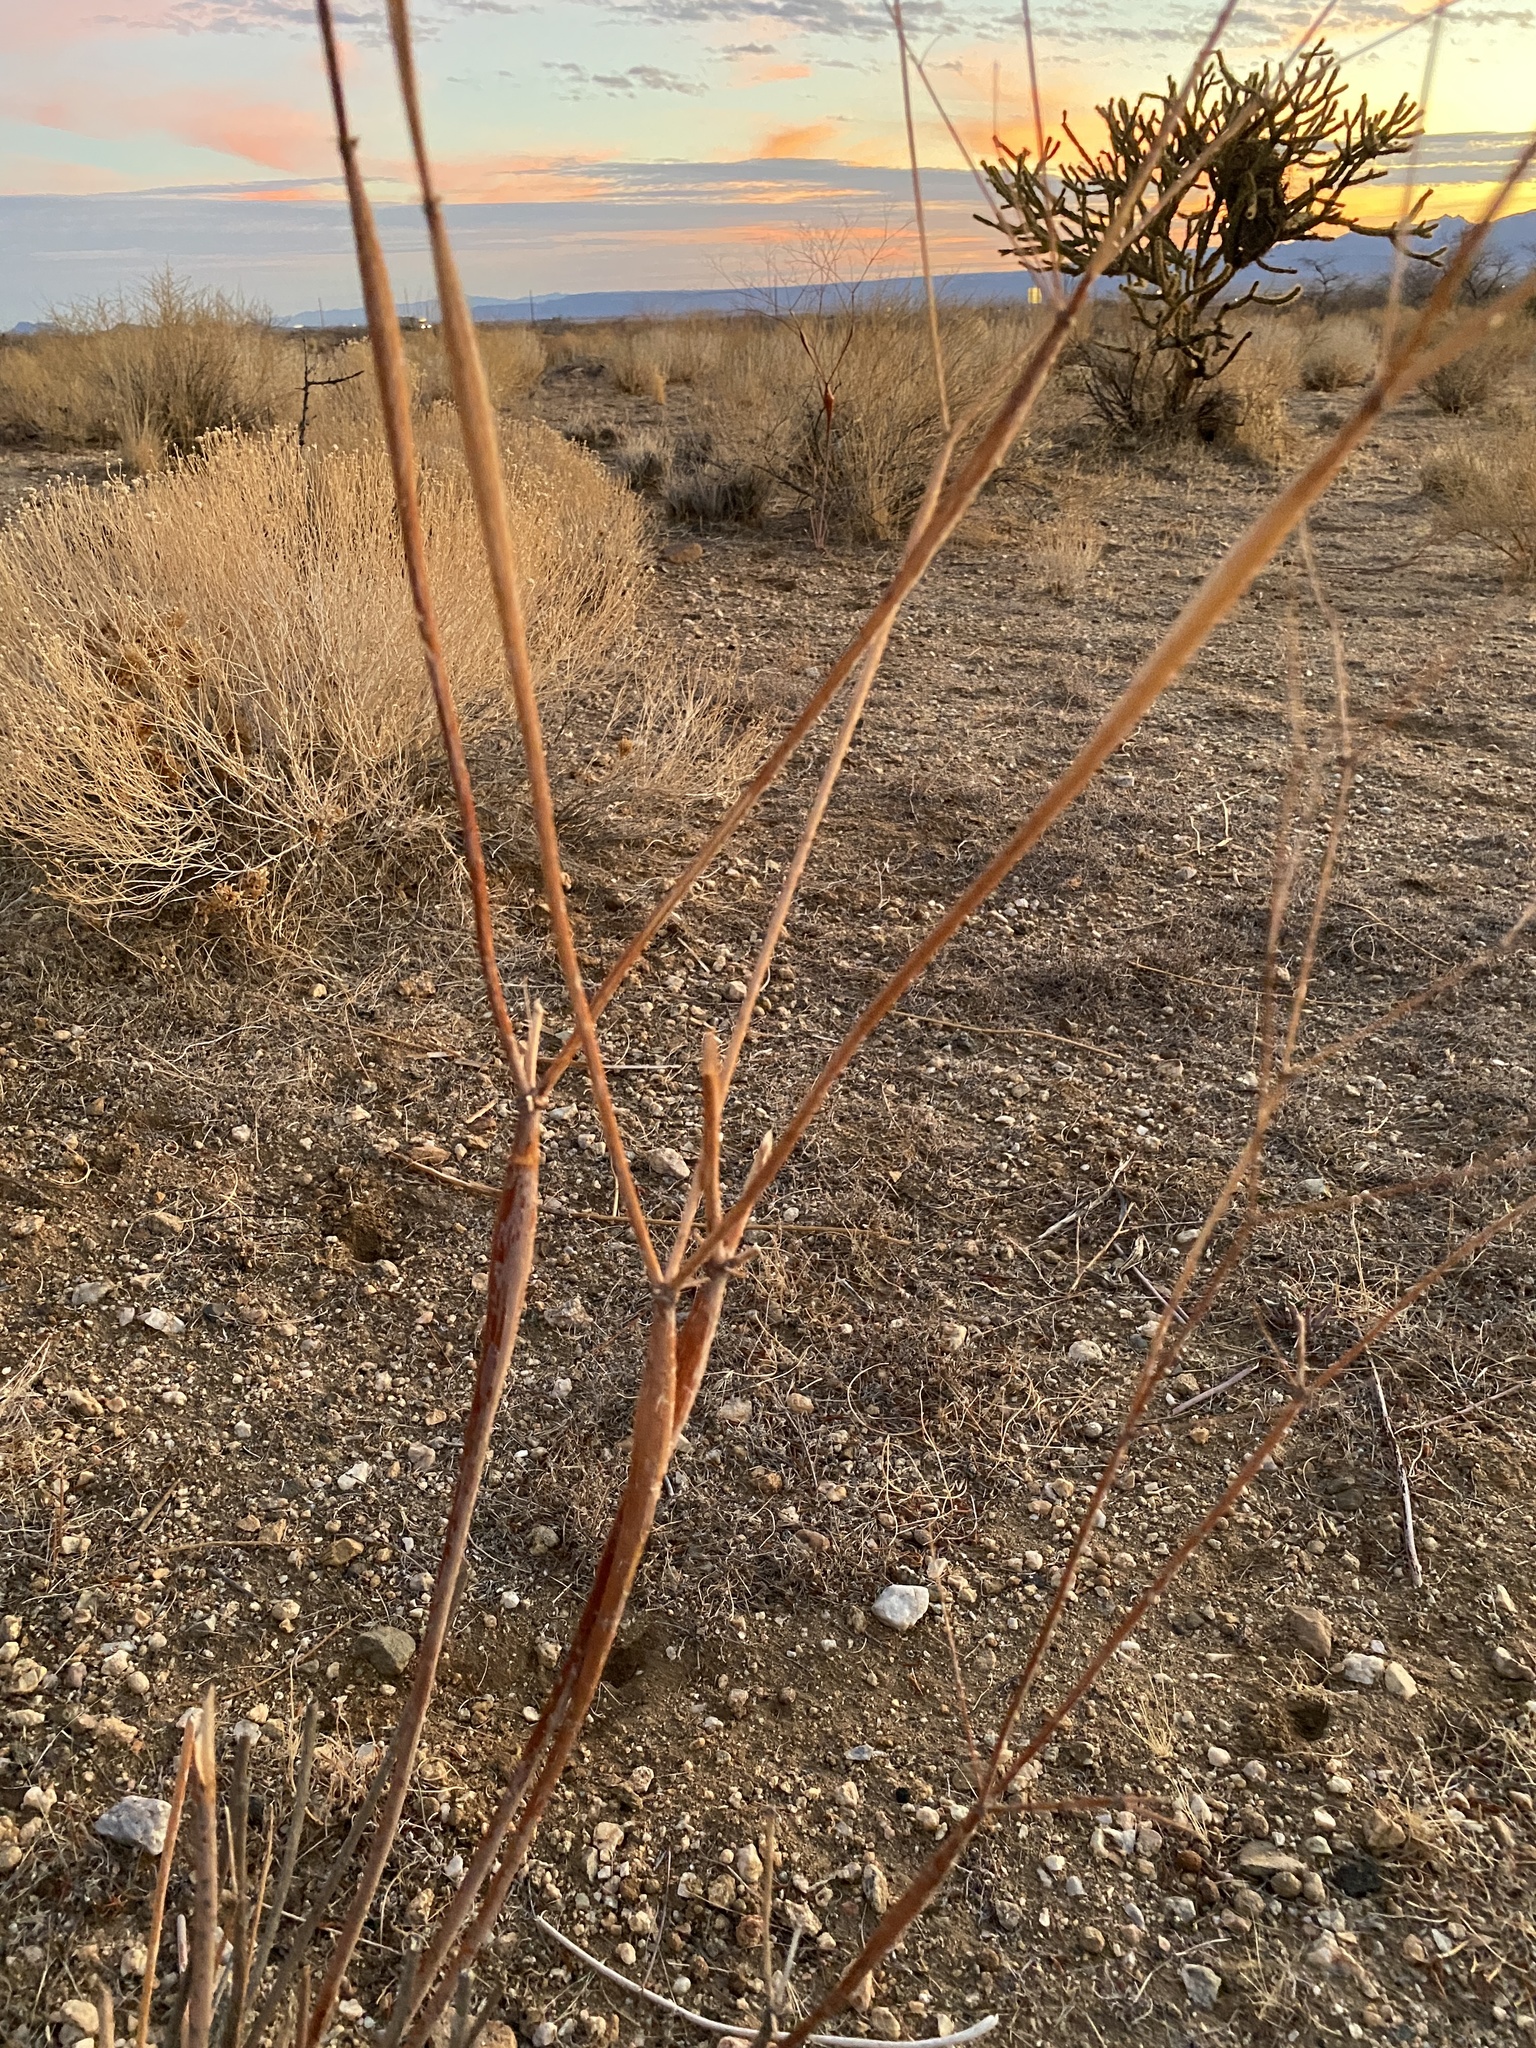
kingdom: Plantae
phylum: Tracheophyta
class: Magnoliopsida
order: Caryophyllales
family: Polygonaceae
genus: Eriogonum
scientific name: Eriogonum inflatum
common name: Desert trumpet
